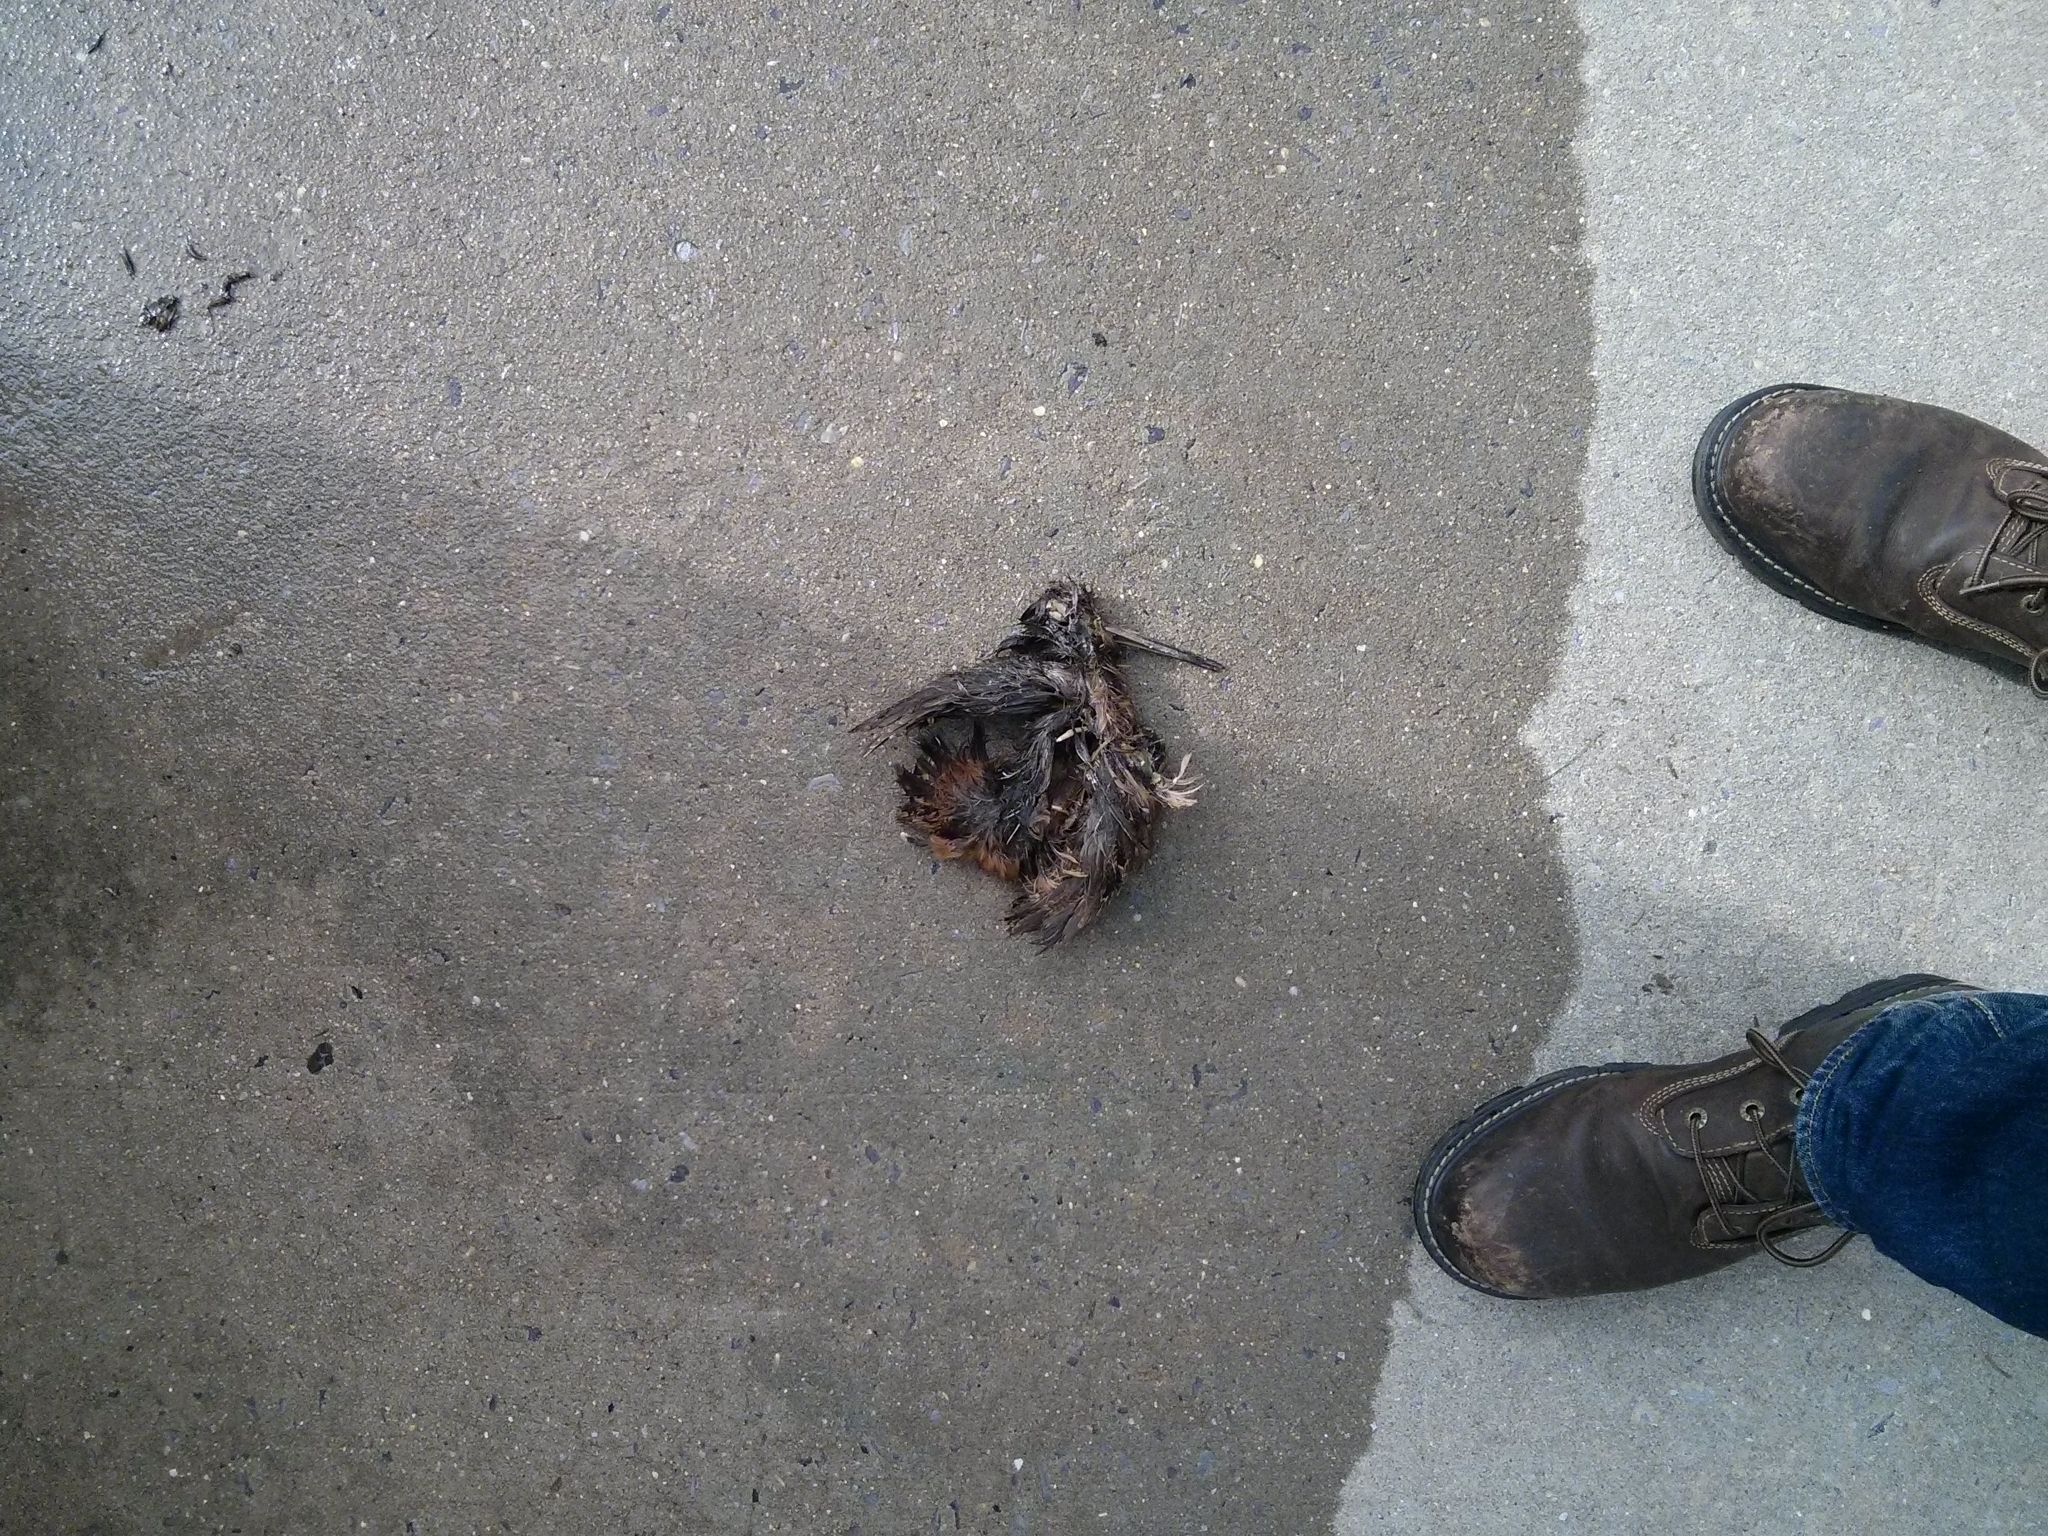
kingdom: Animalia
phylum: Chordata
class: Aves
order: Charadriiformes
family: Scolopacidae
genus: Scolopax
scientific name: Scolopax minor
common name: American woodcock
